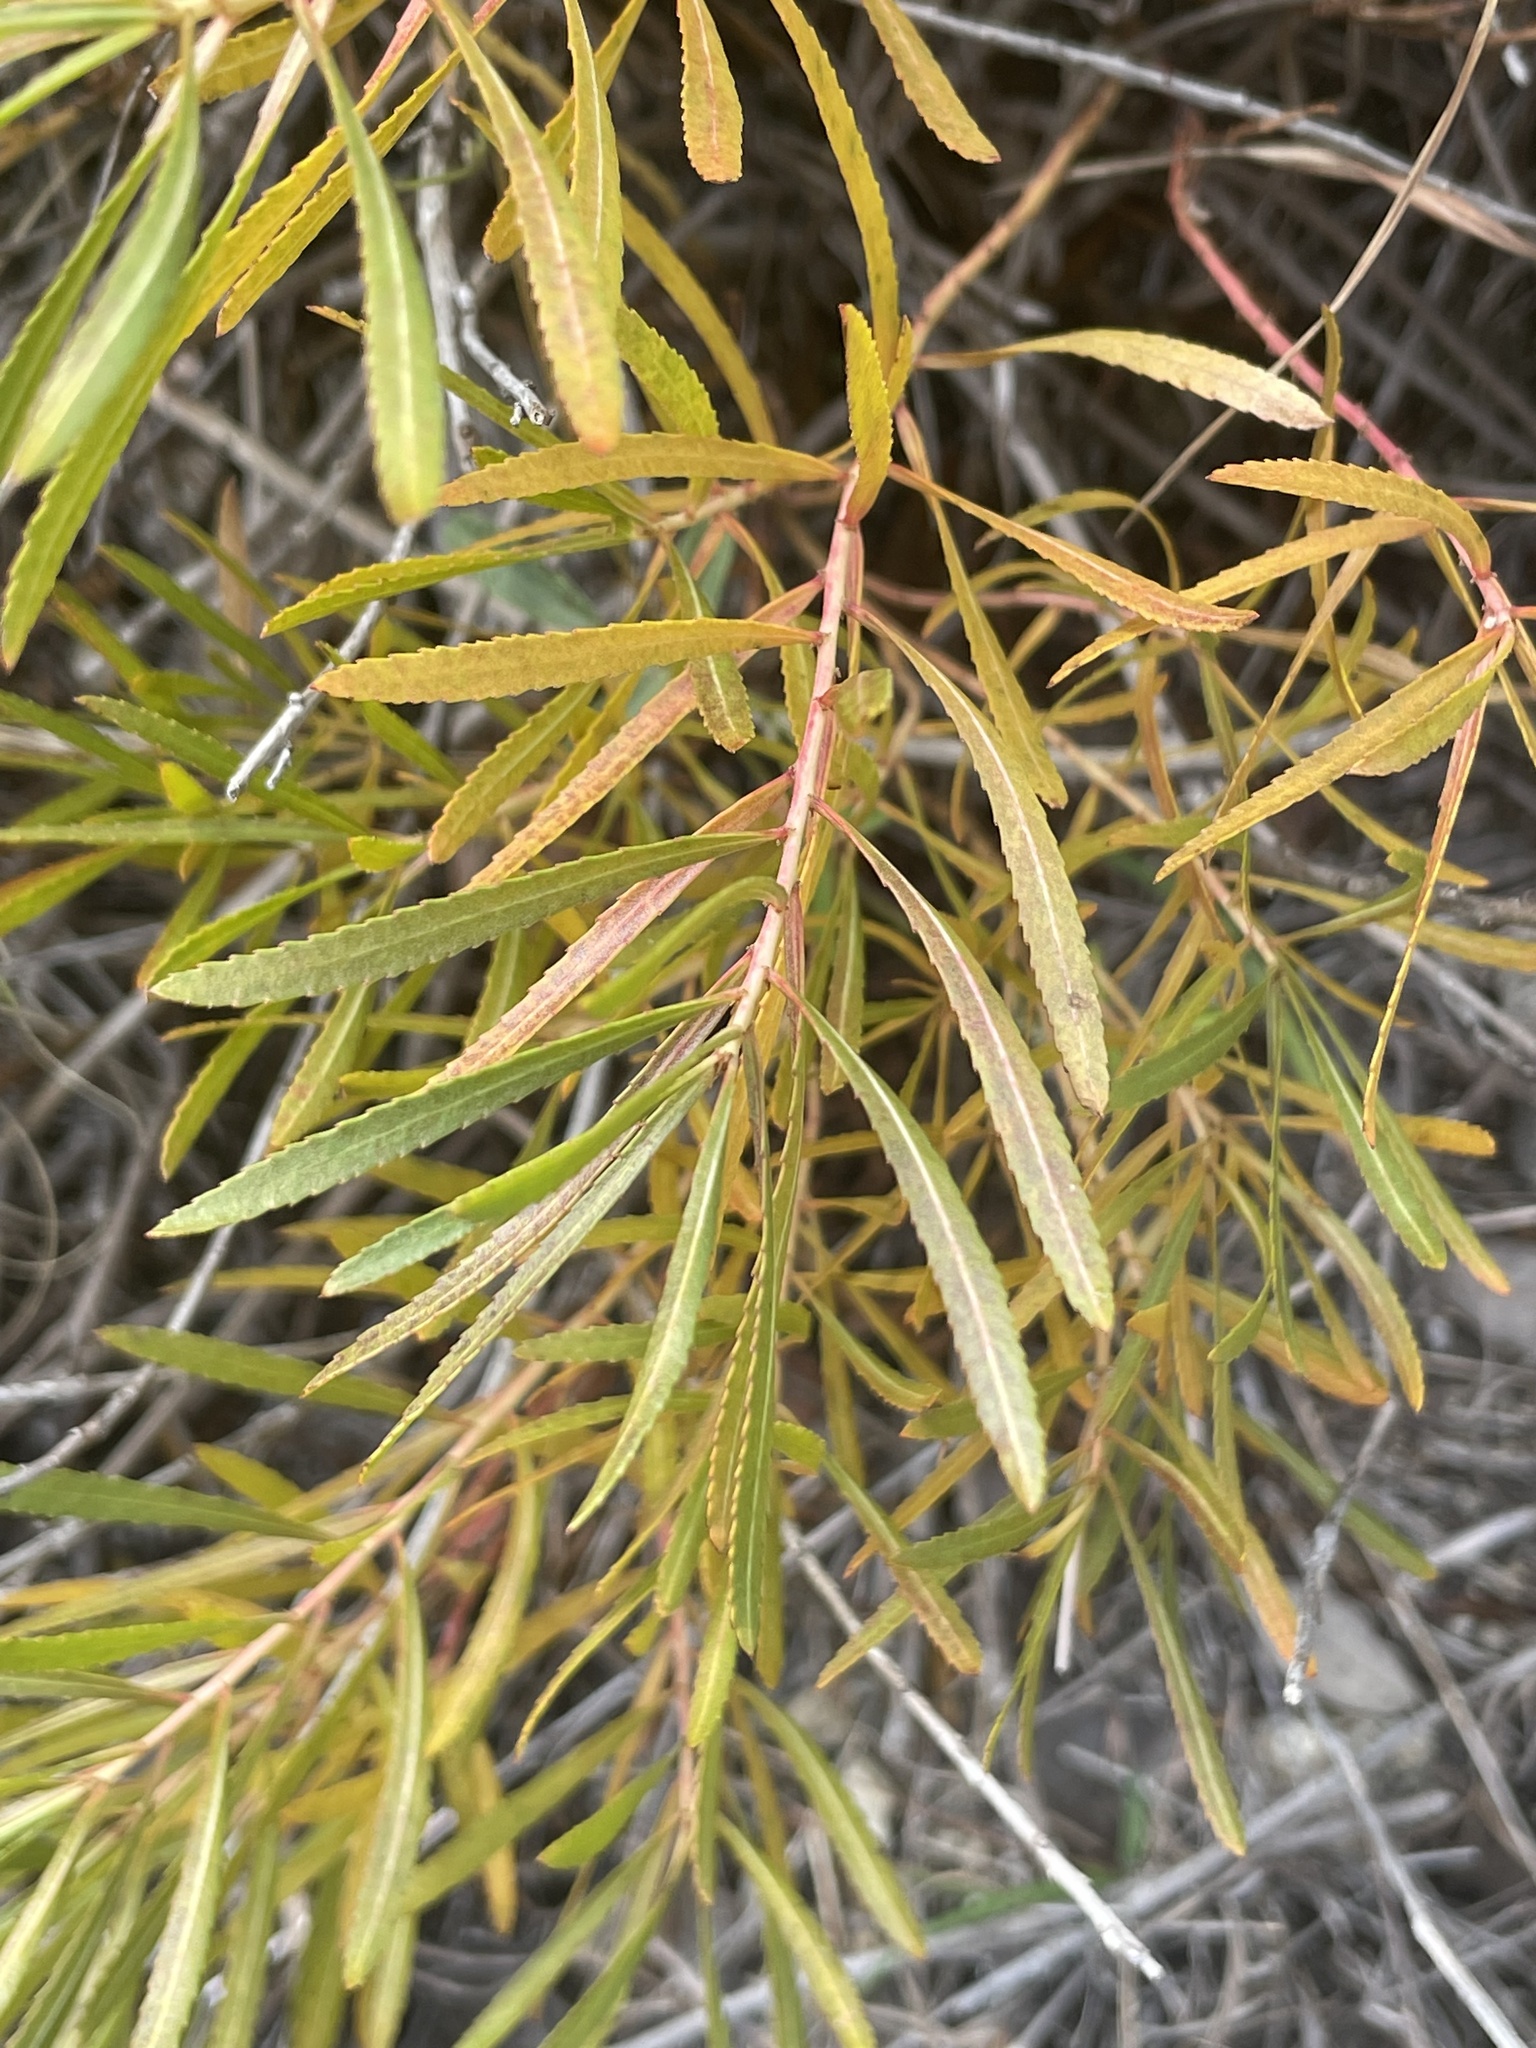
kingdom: Plantae
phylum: Tracheophyta
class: Magnoliopsida
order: Malpighiales
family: Euphorbiaceae
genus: Stillingia
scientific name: Stillingia texana
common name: Texas stillingia
